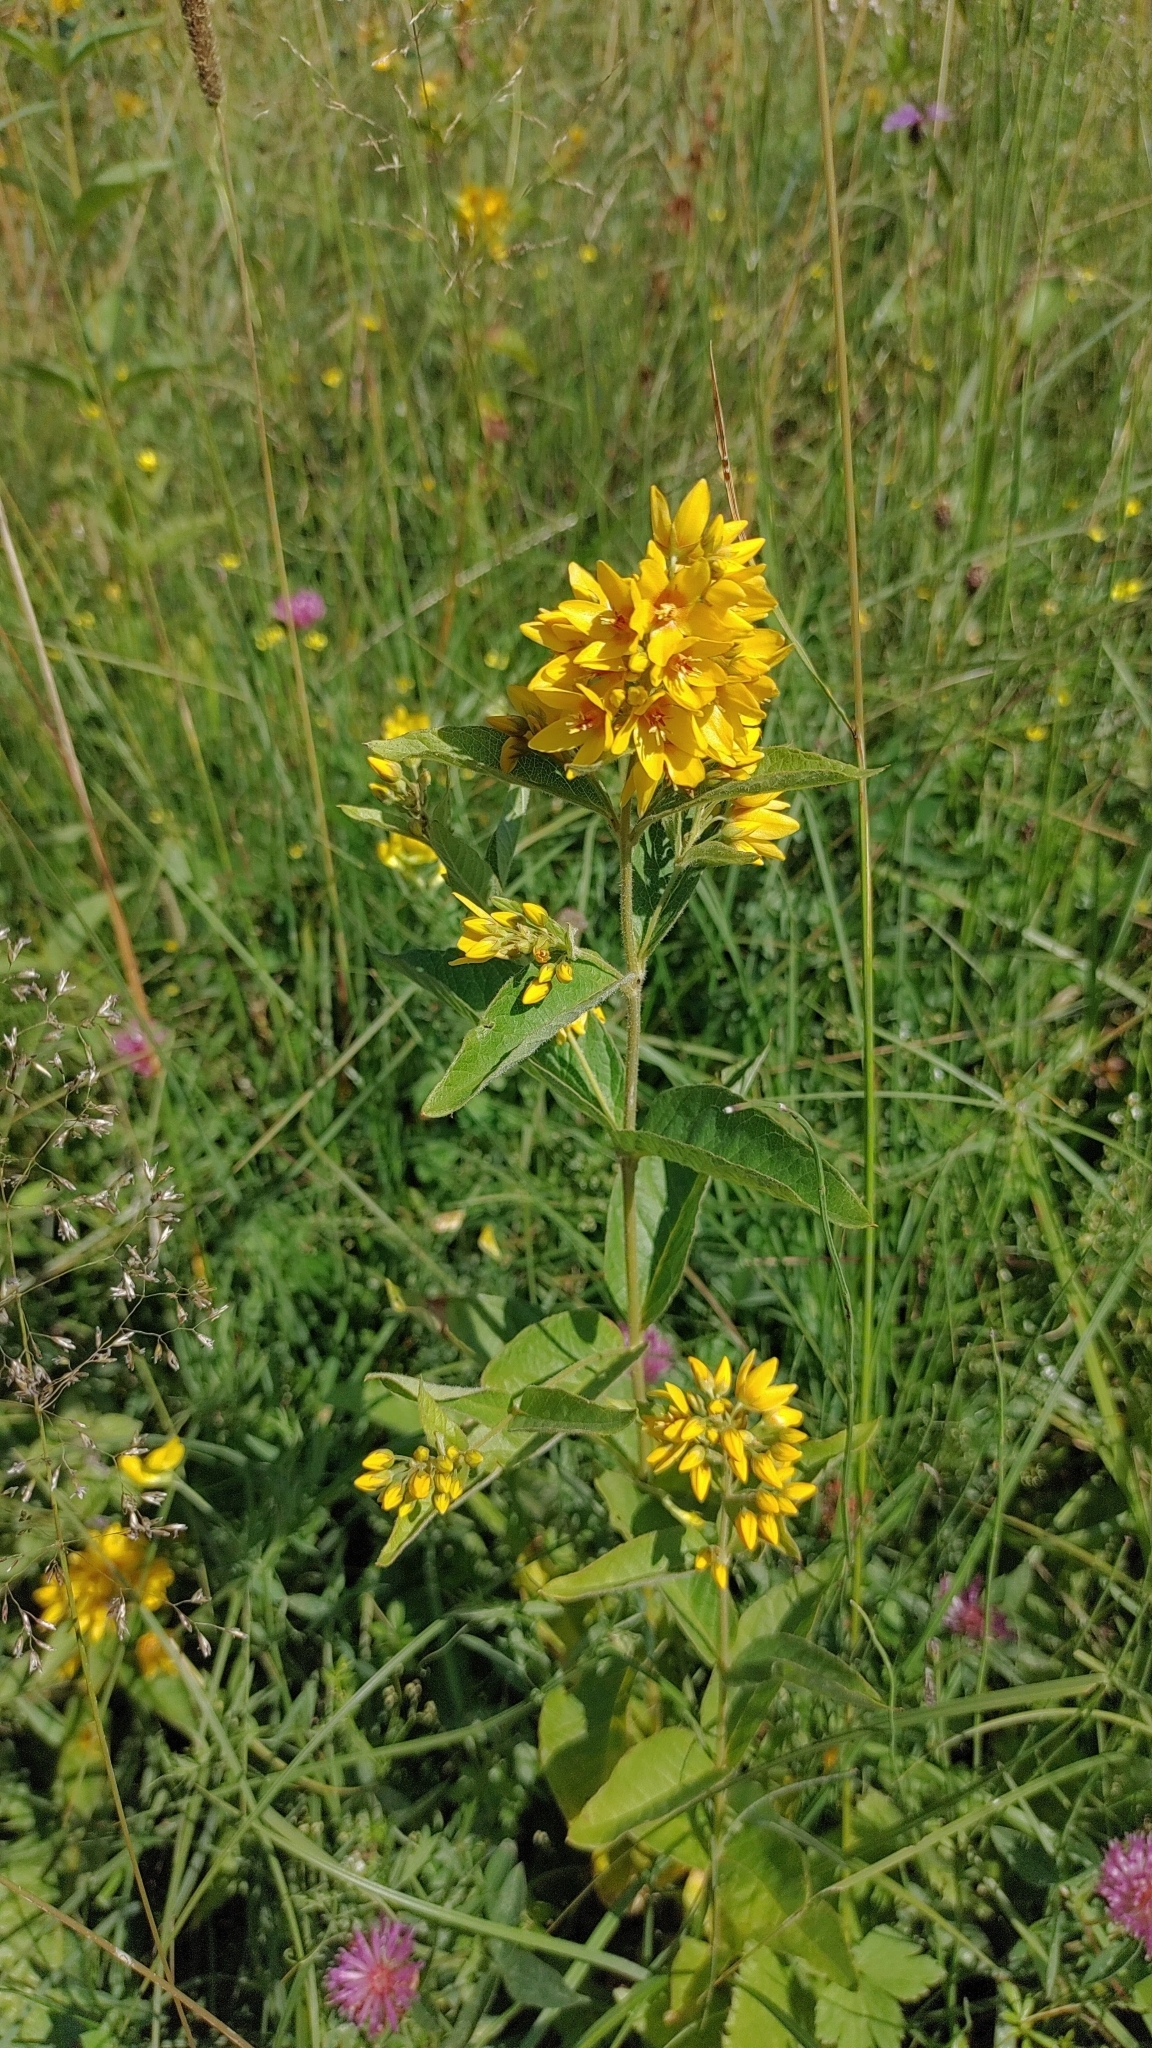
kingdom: Plantae
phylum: Tracheophyta
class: Magnoliopsida
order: Ericales
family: Primulaceae
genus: Lysimachia
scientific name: Lysimachia vulgaris
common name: Yellow loosestrife
